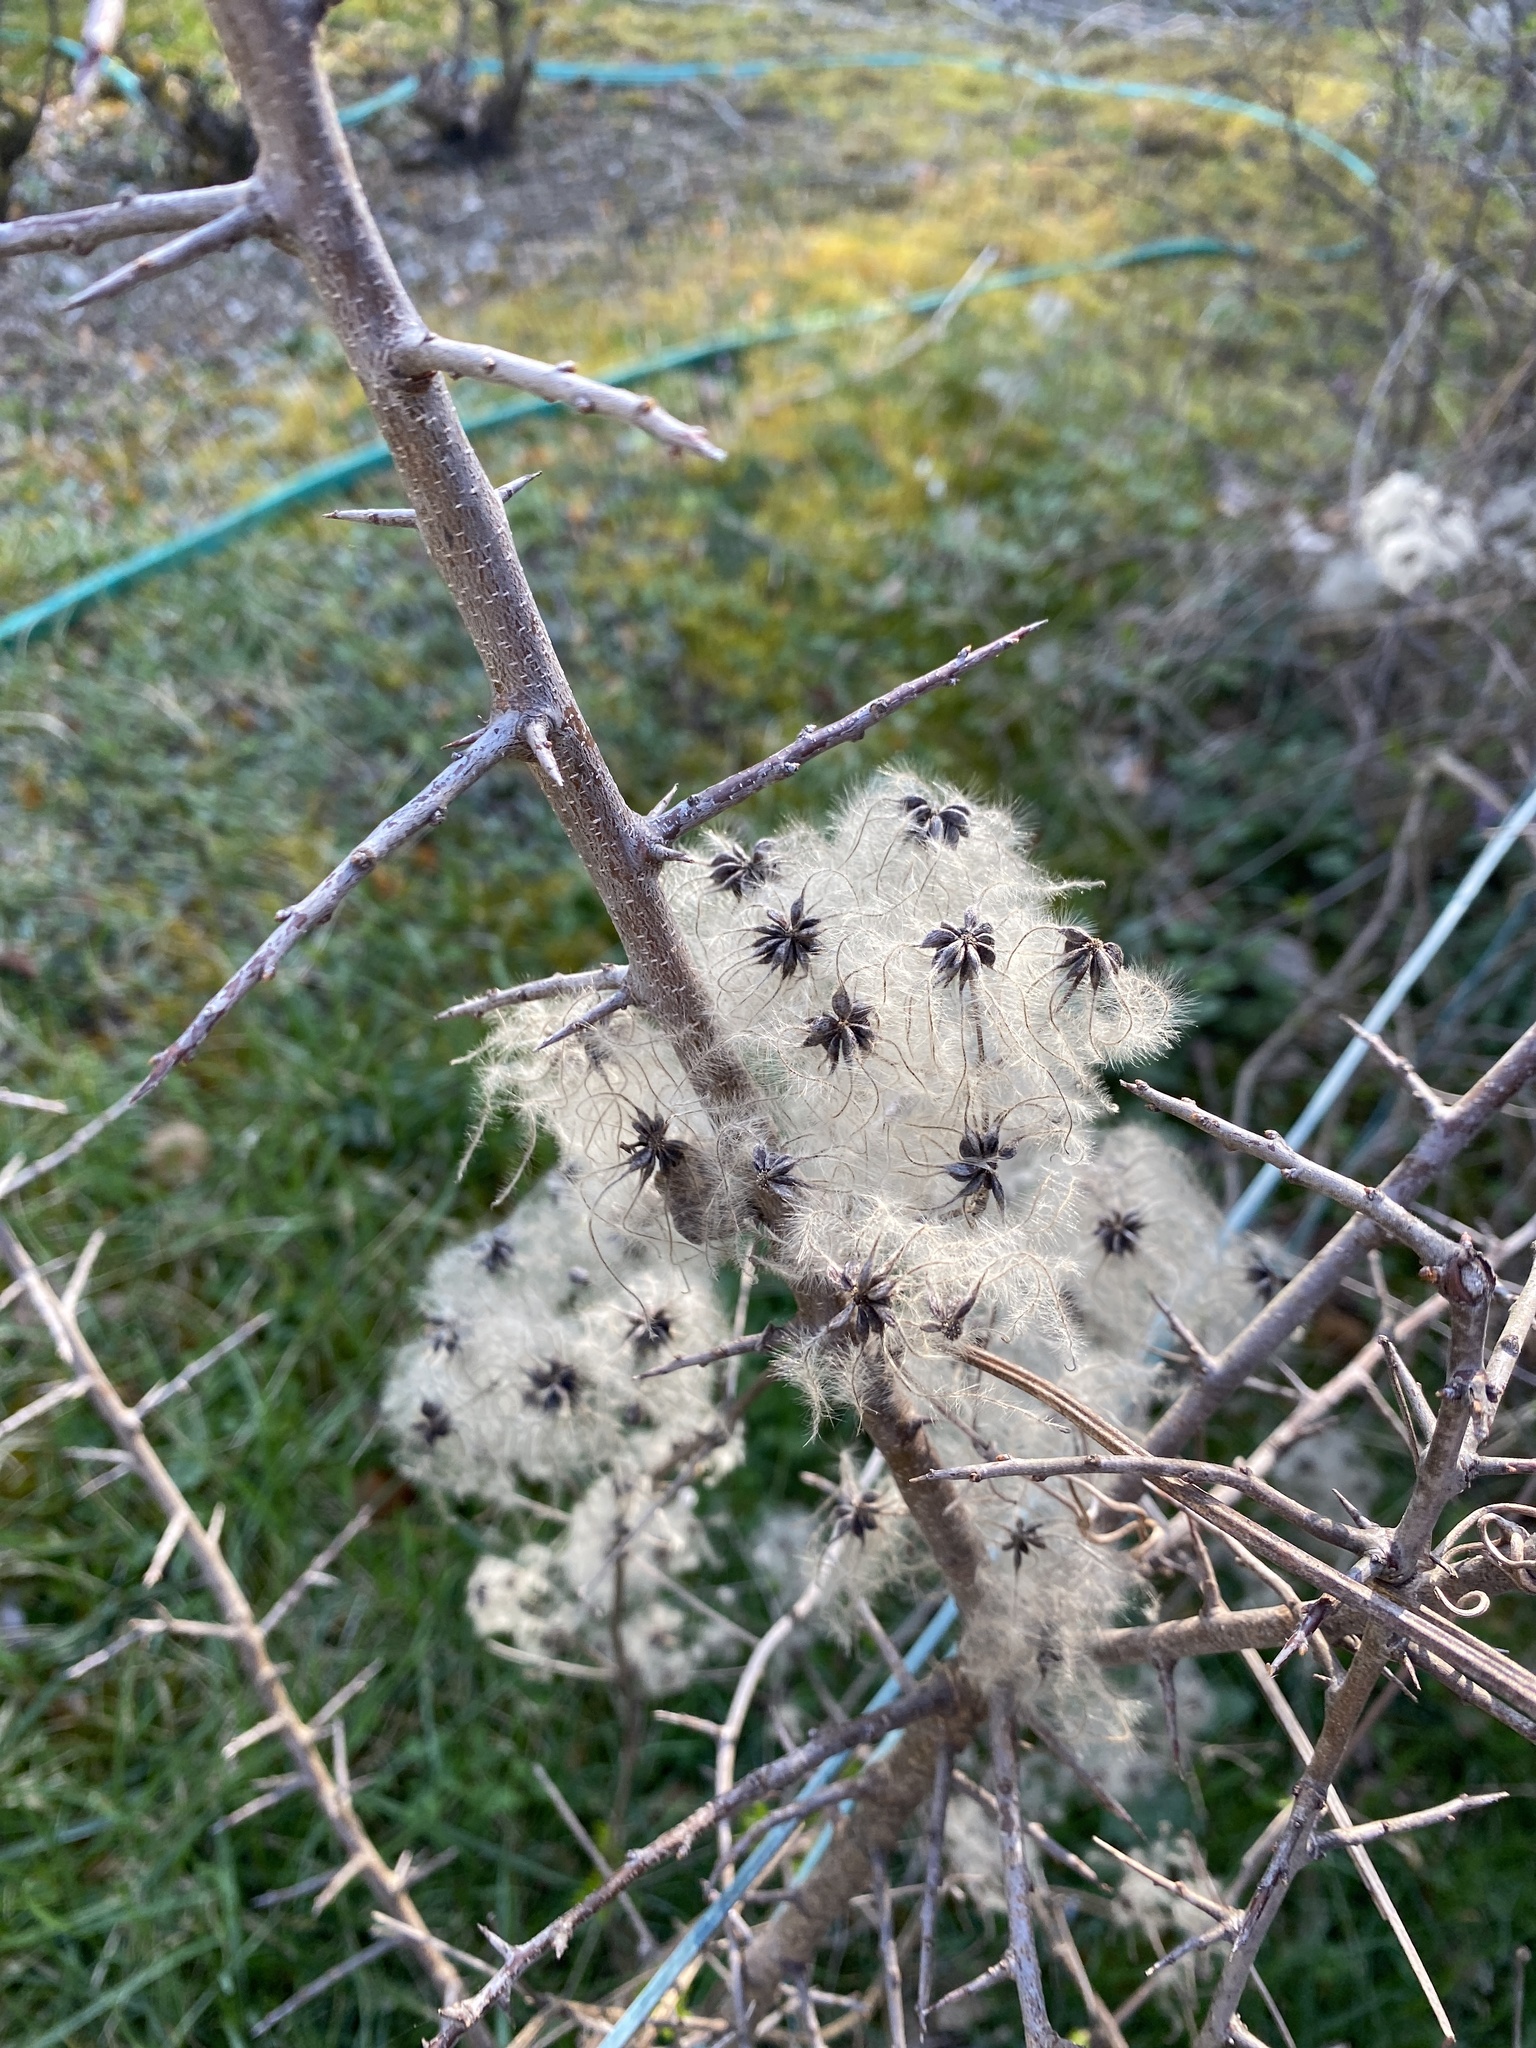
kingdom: Plantae
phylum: Tracheophyta
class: Magnoliopsida
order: Ranunculales
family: Ranunculaceae
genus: Clematis
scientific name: Clematis vitalba
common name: Evergreen clematis
